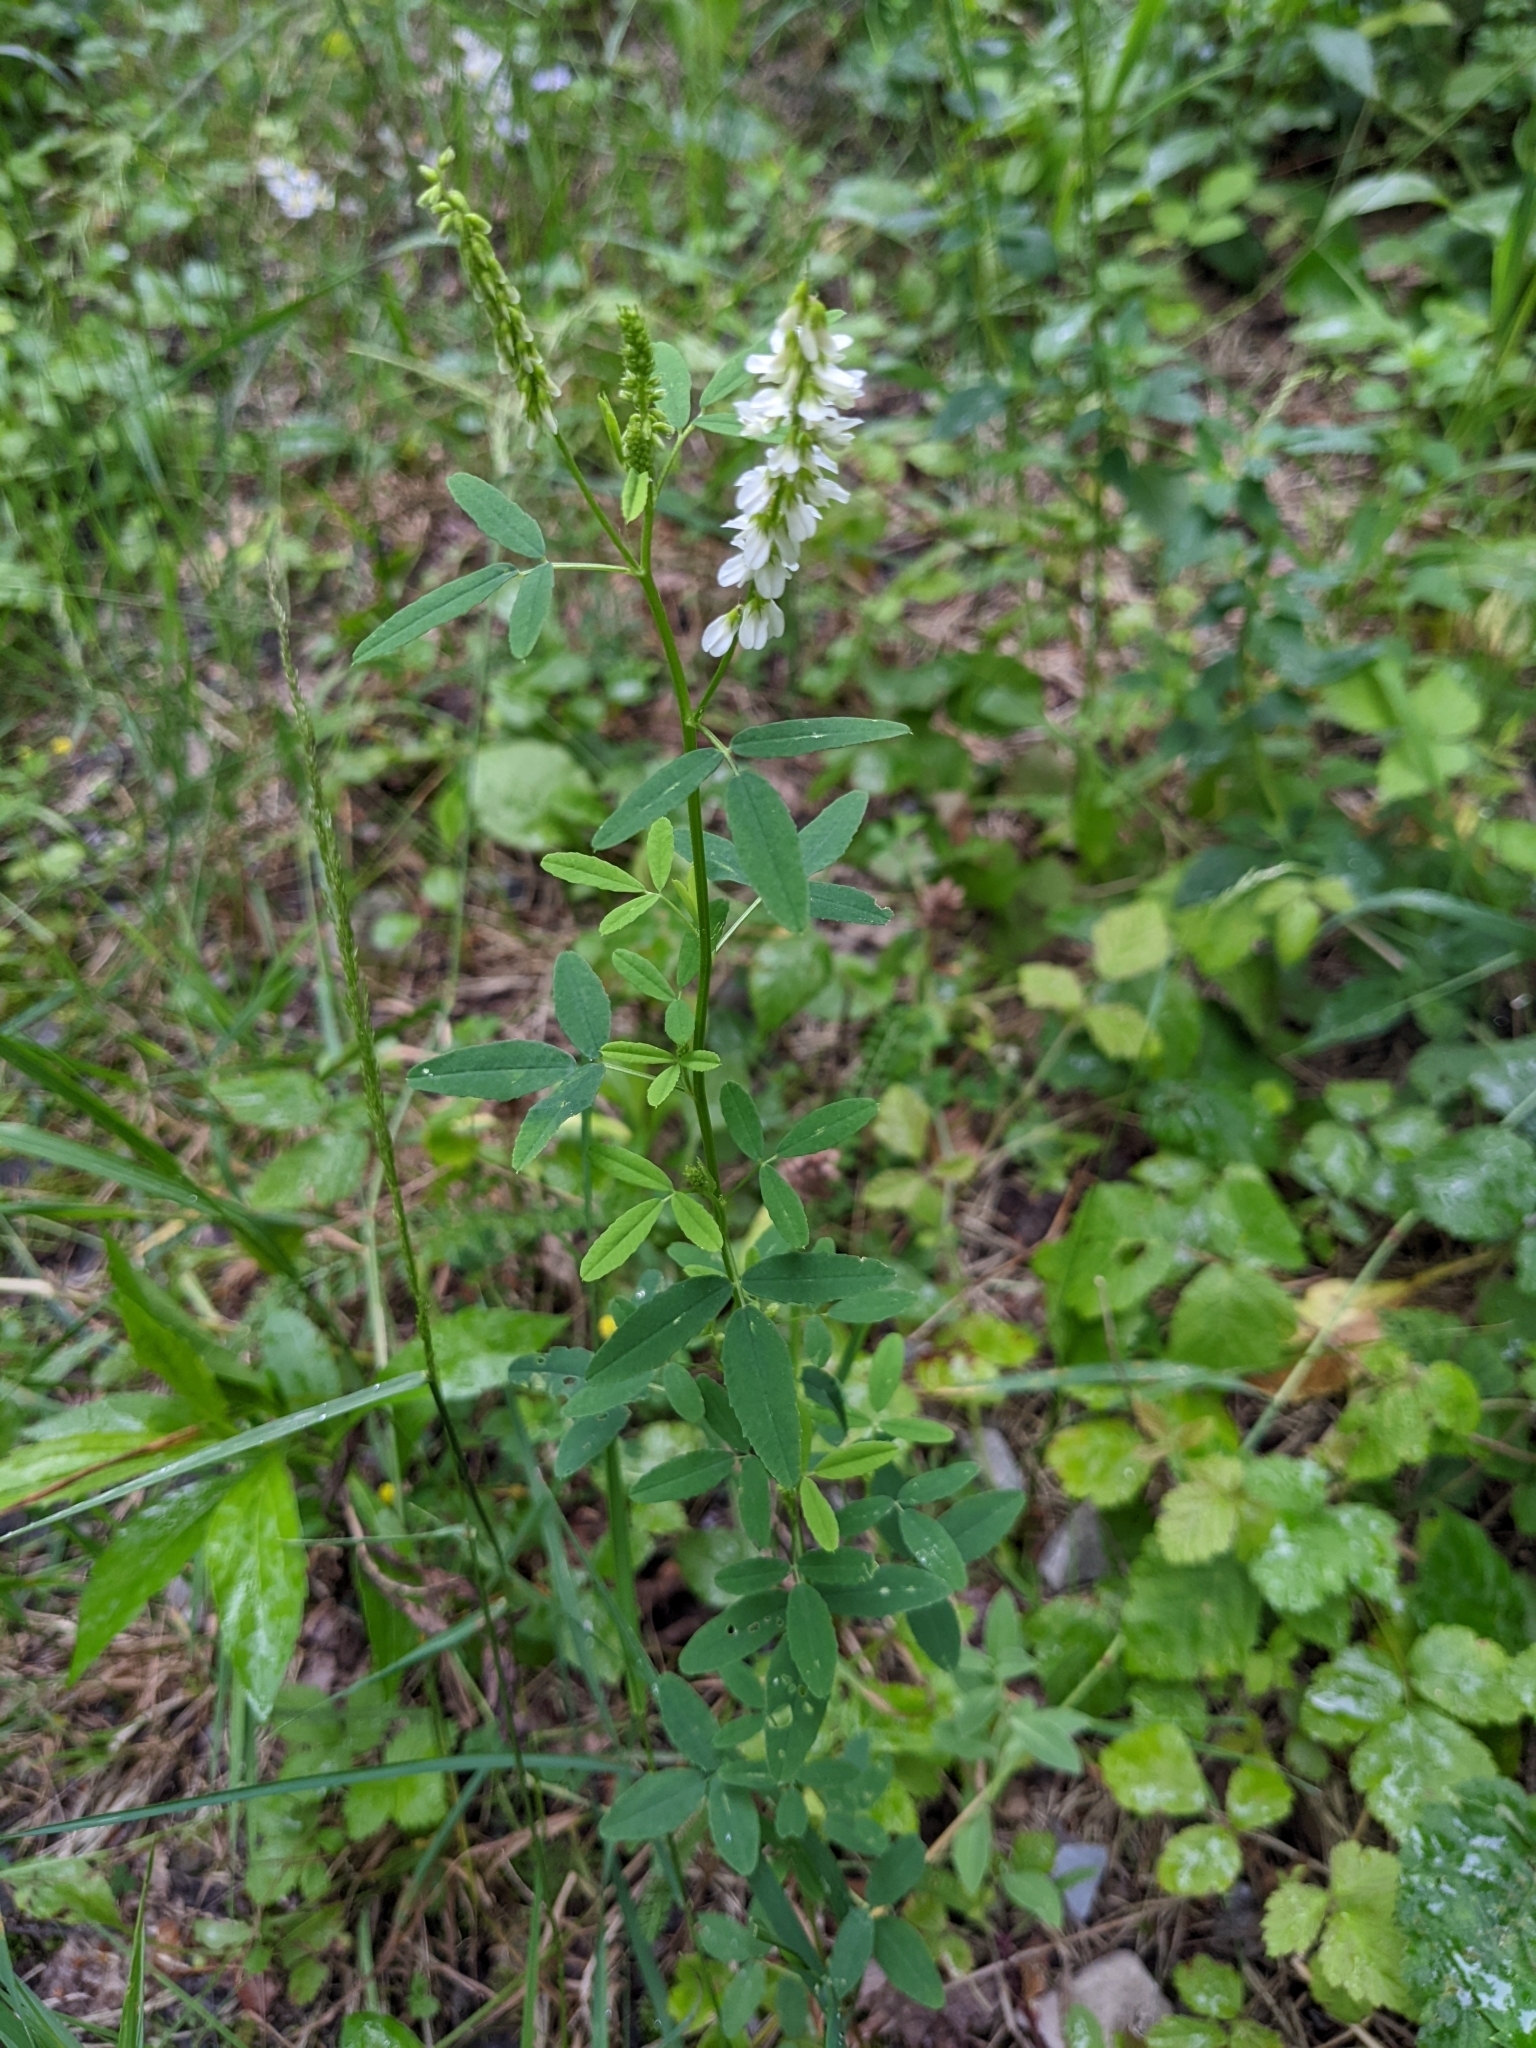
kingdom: Plantae
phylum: Tracheophyta
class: Magnoliopsida
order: Fabales
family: Fabaceae
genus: Melilotus
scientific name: Melilotus albus
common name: White melilot
